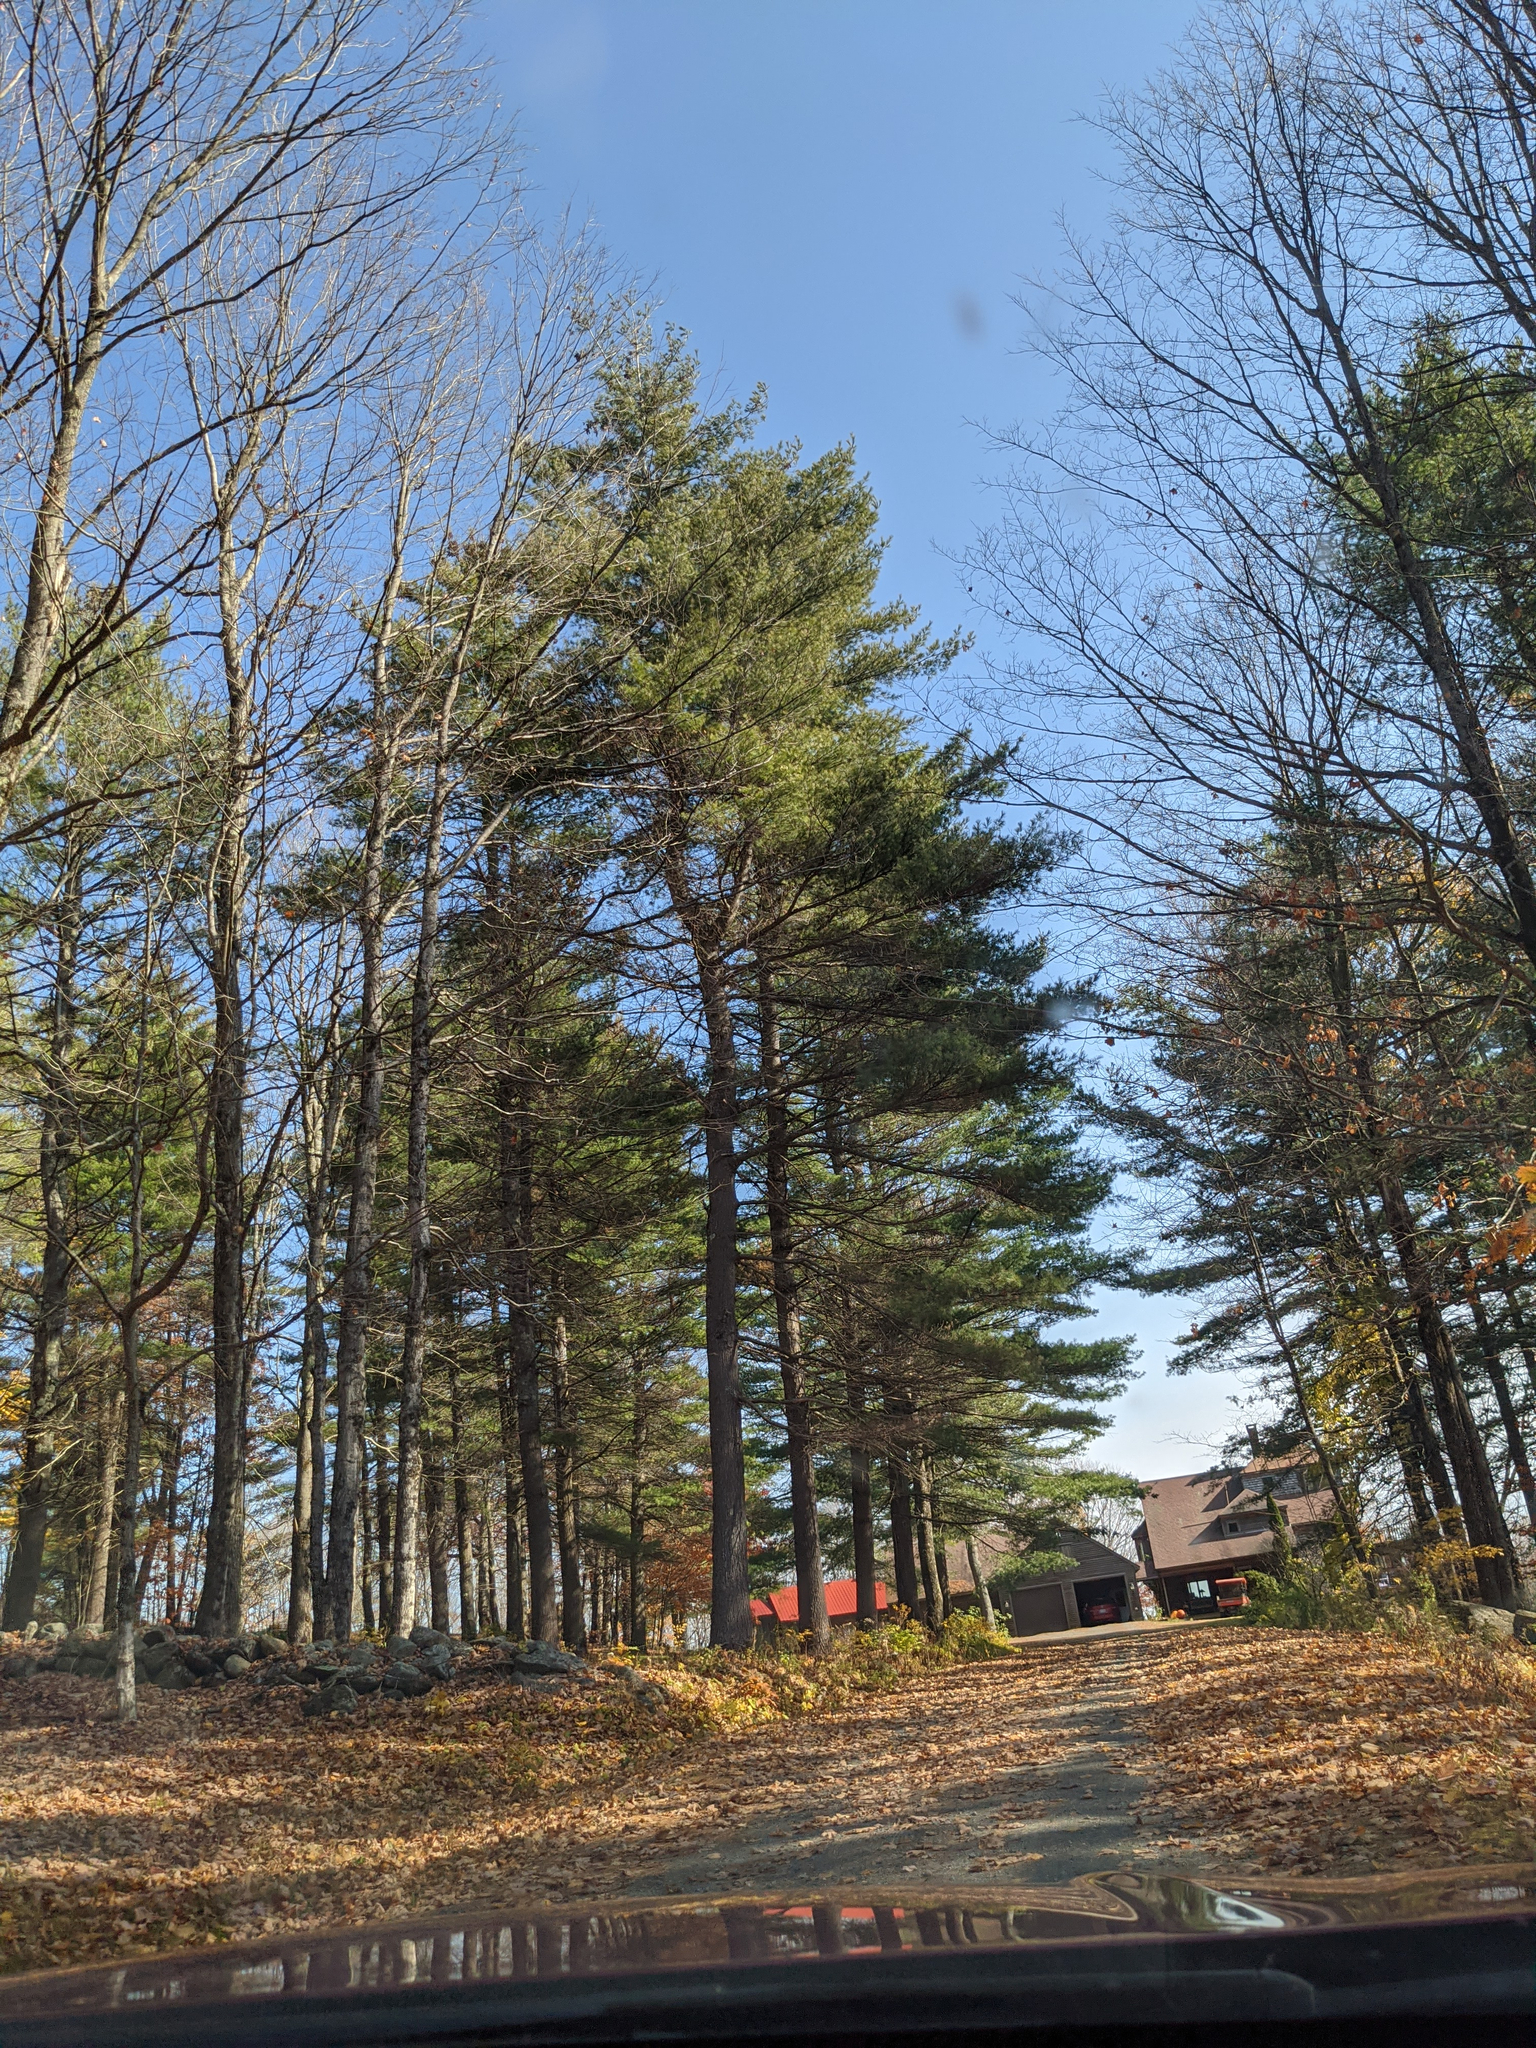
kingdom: Plantae
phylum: Tracheophyta
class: Pinopsida
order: Pinales
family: Pinaceae
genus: Pinus
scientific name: Pinus strobus
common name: Weymouth pine
